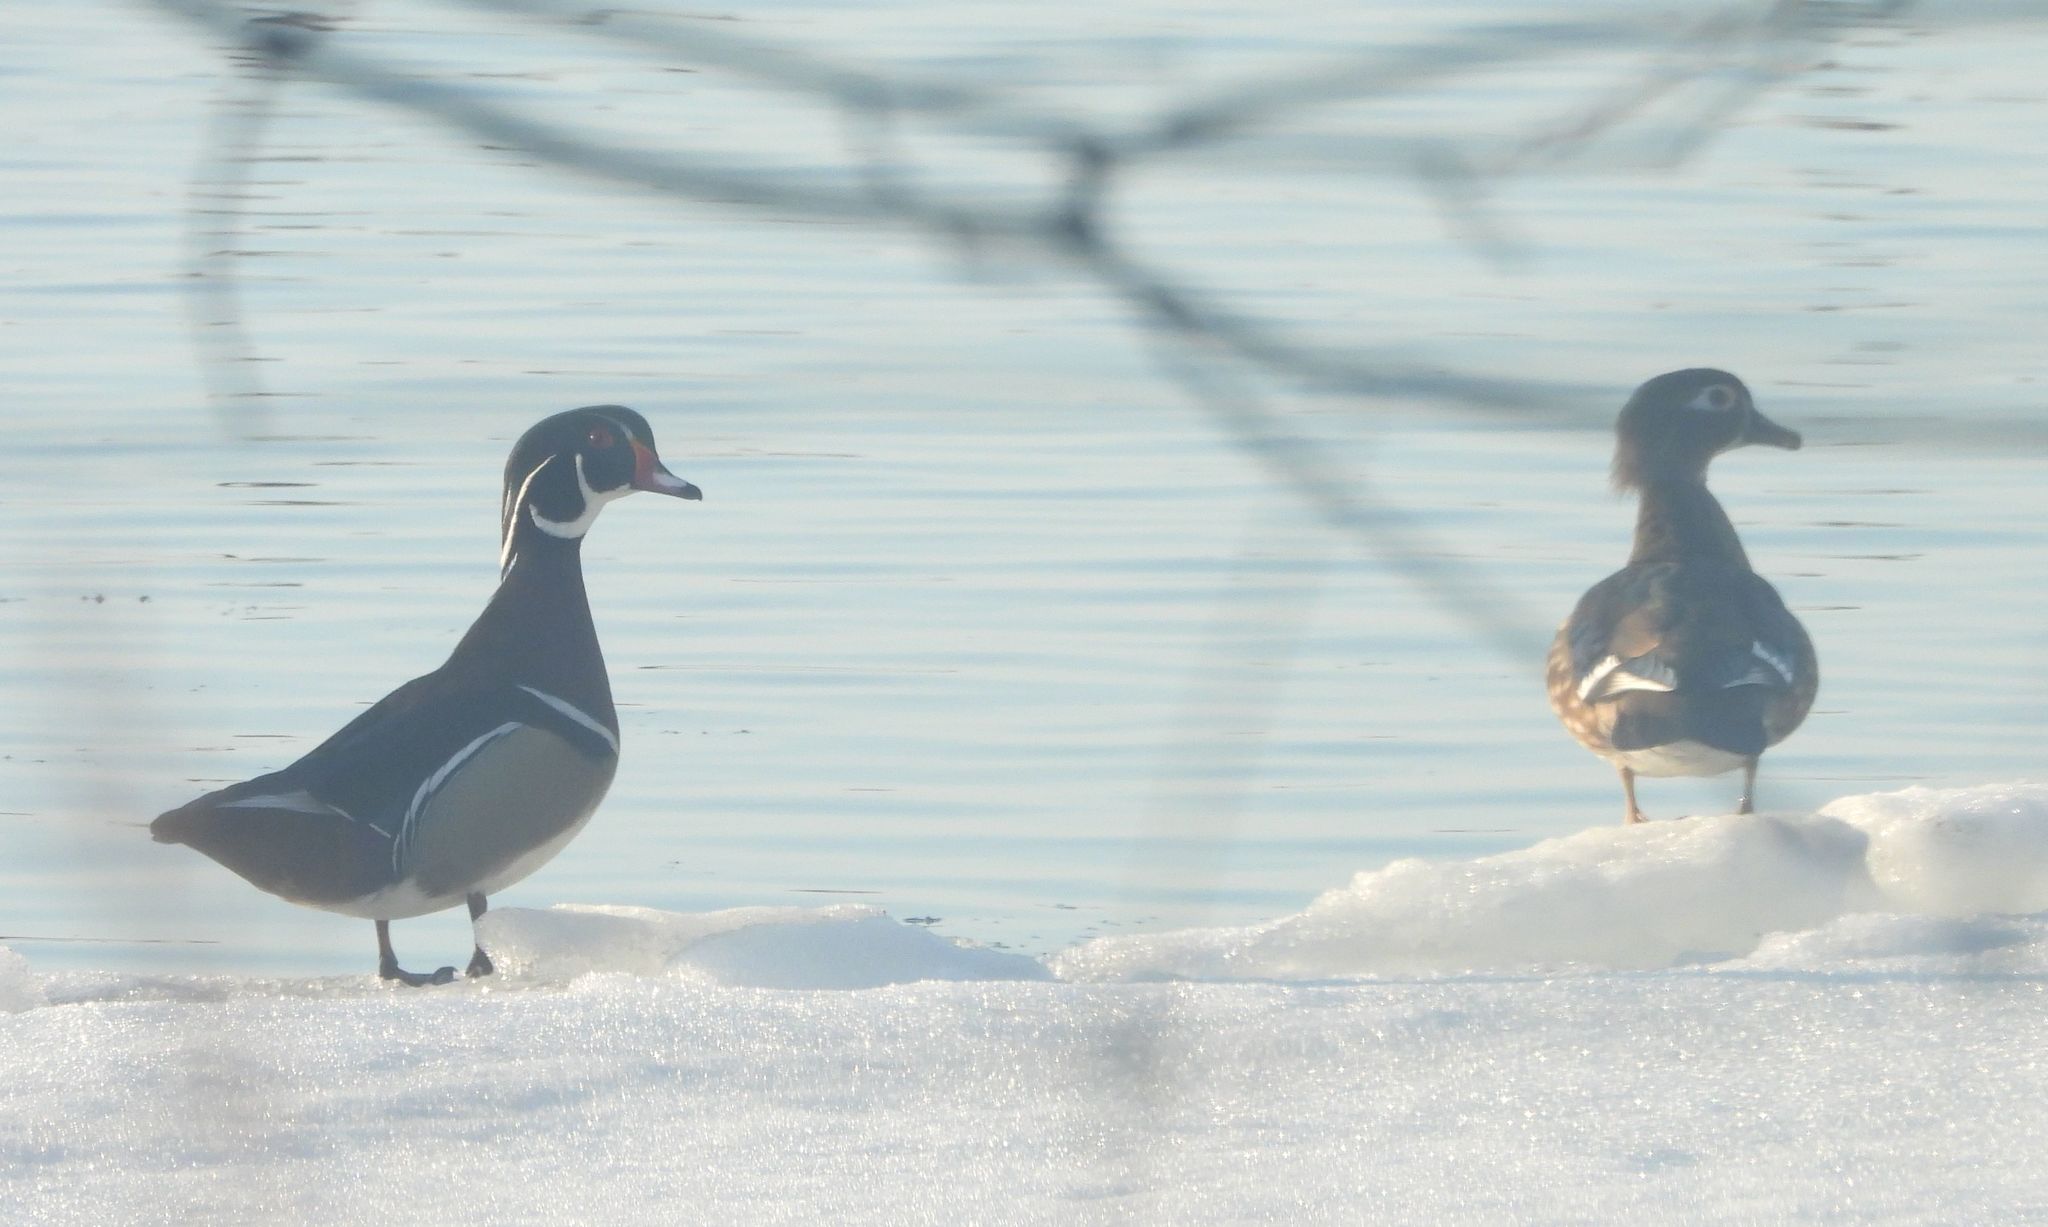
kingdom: Animalia
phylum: Chordata
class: Aves
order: Anseriformes
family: Anatidae
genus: Aix
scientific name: Aix sponsa
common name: Wood duck
